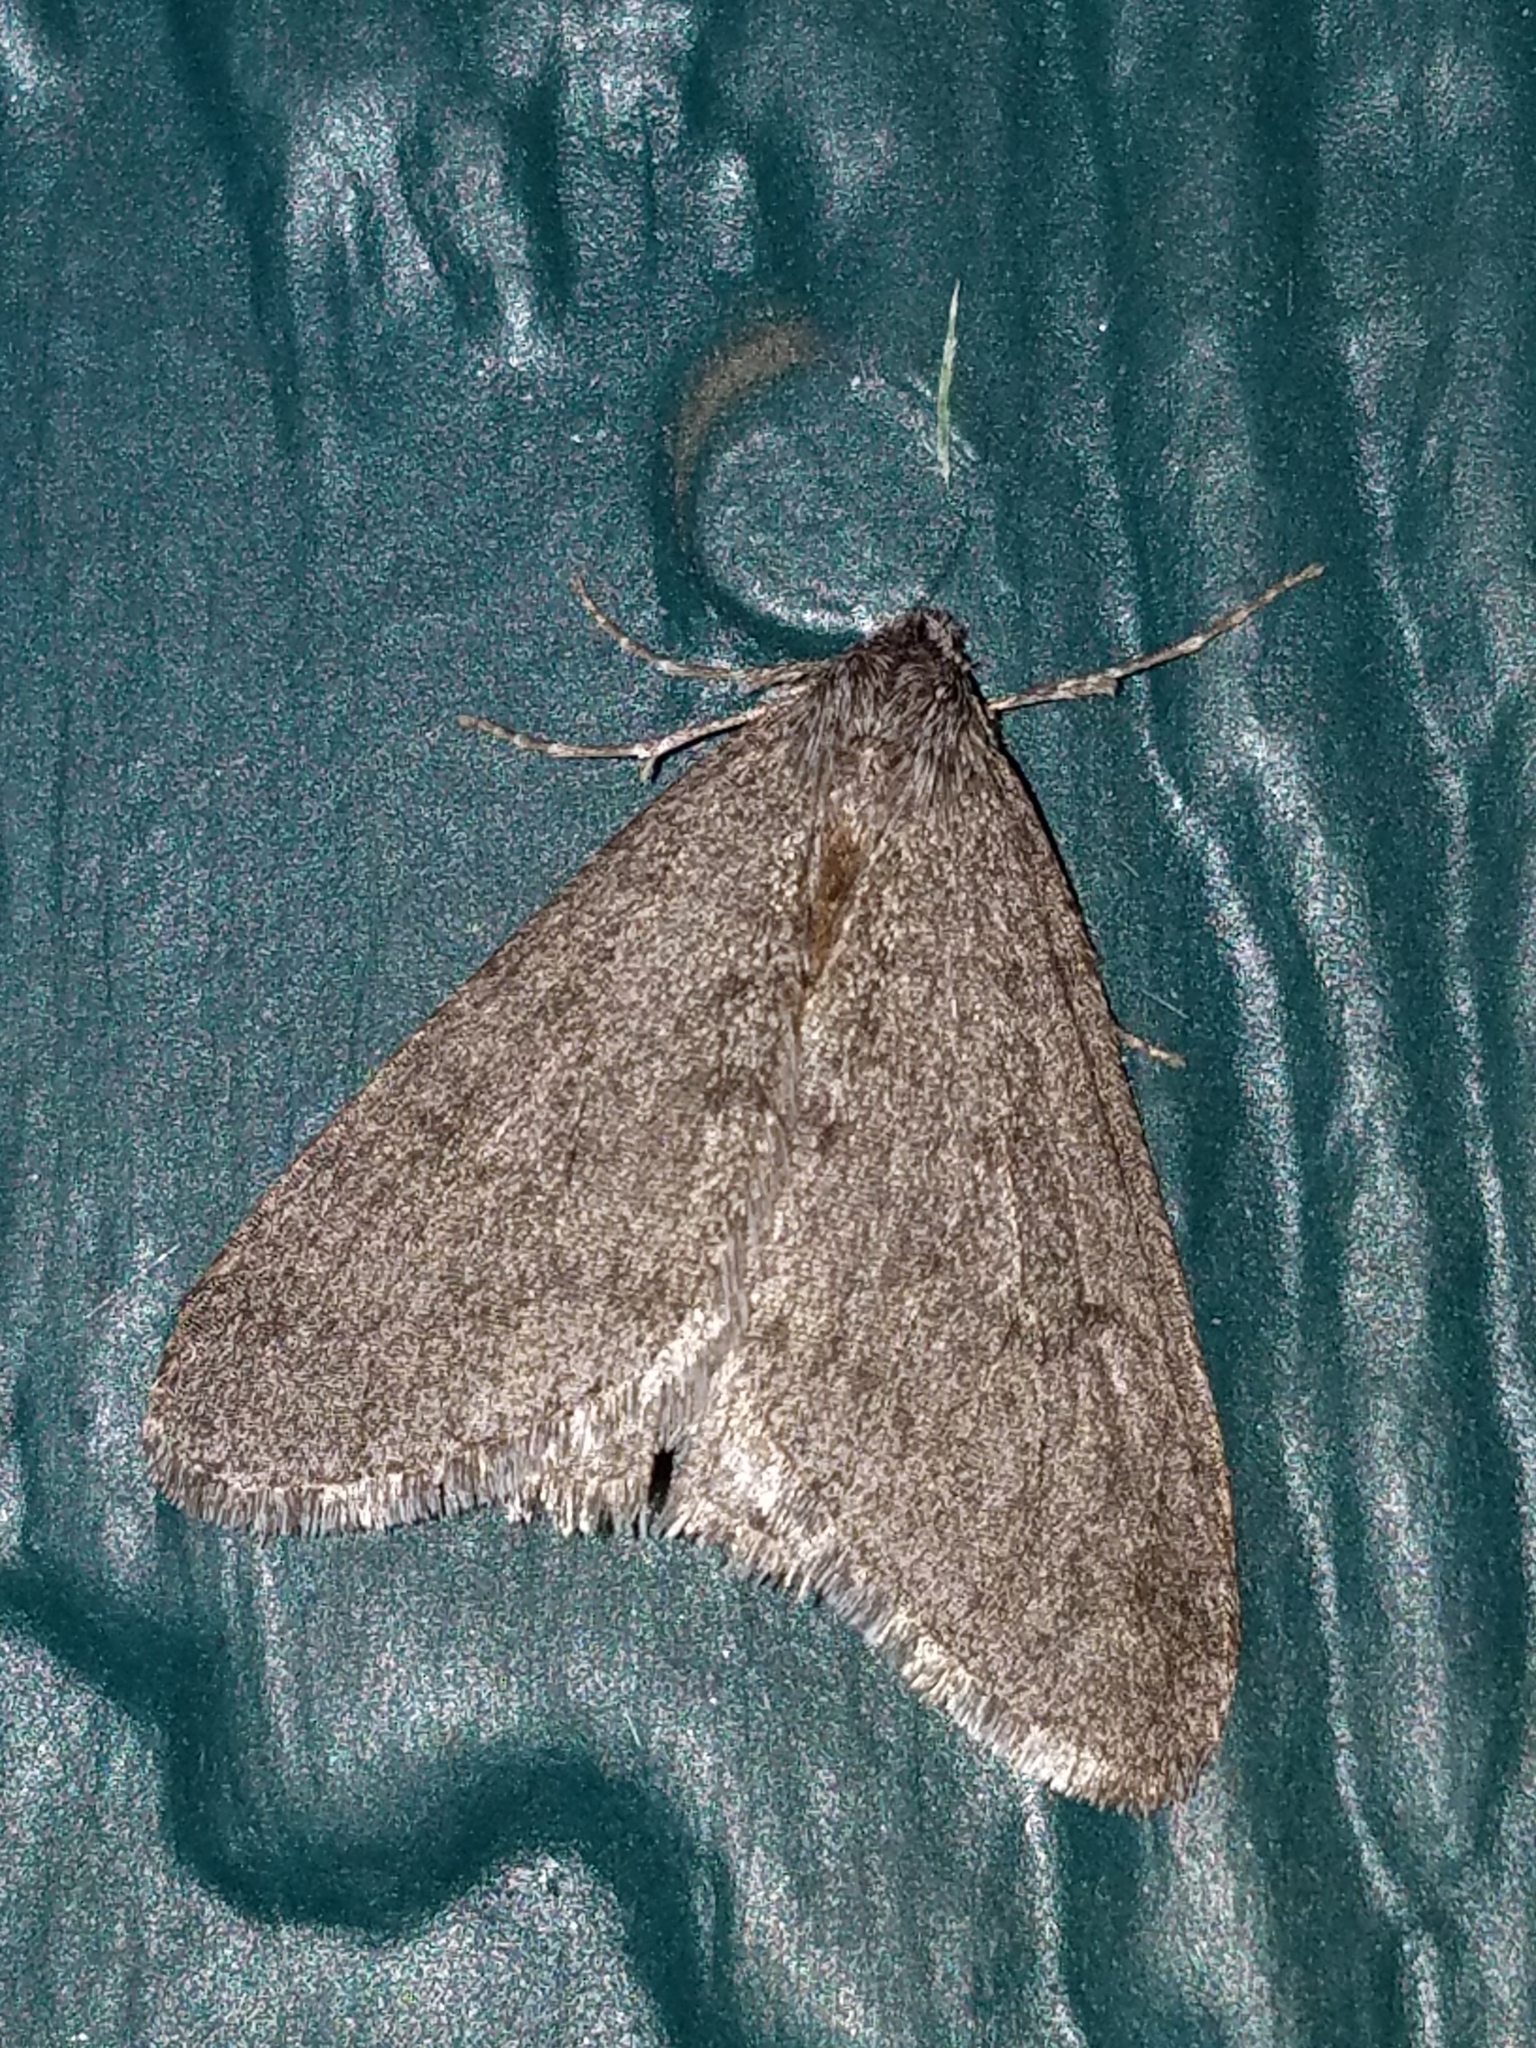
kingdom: Animalia
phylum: Arthropoda
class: Insecta
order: Lepidoptera
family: Geometridae
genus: Phigalia
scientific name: Phigalia plumogeraria
